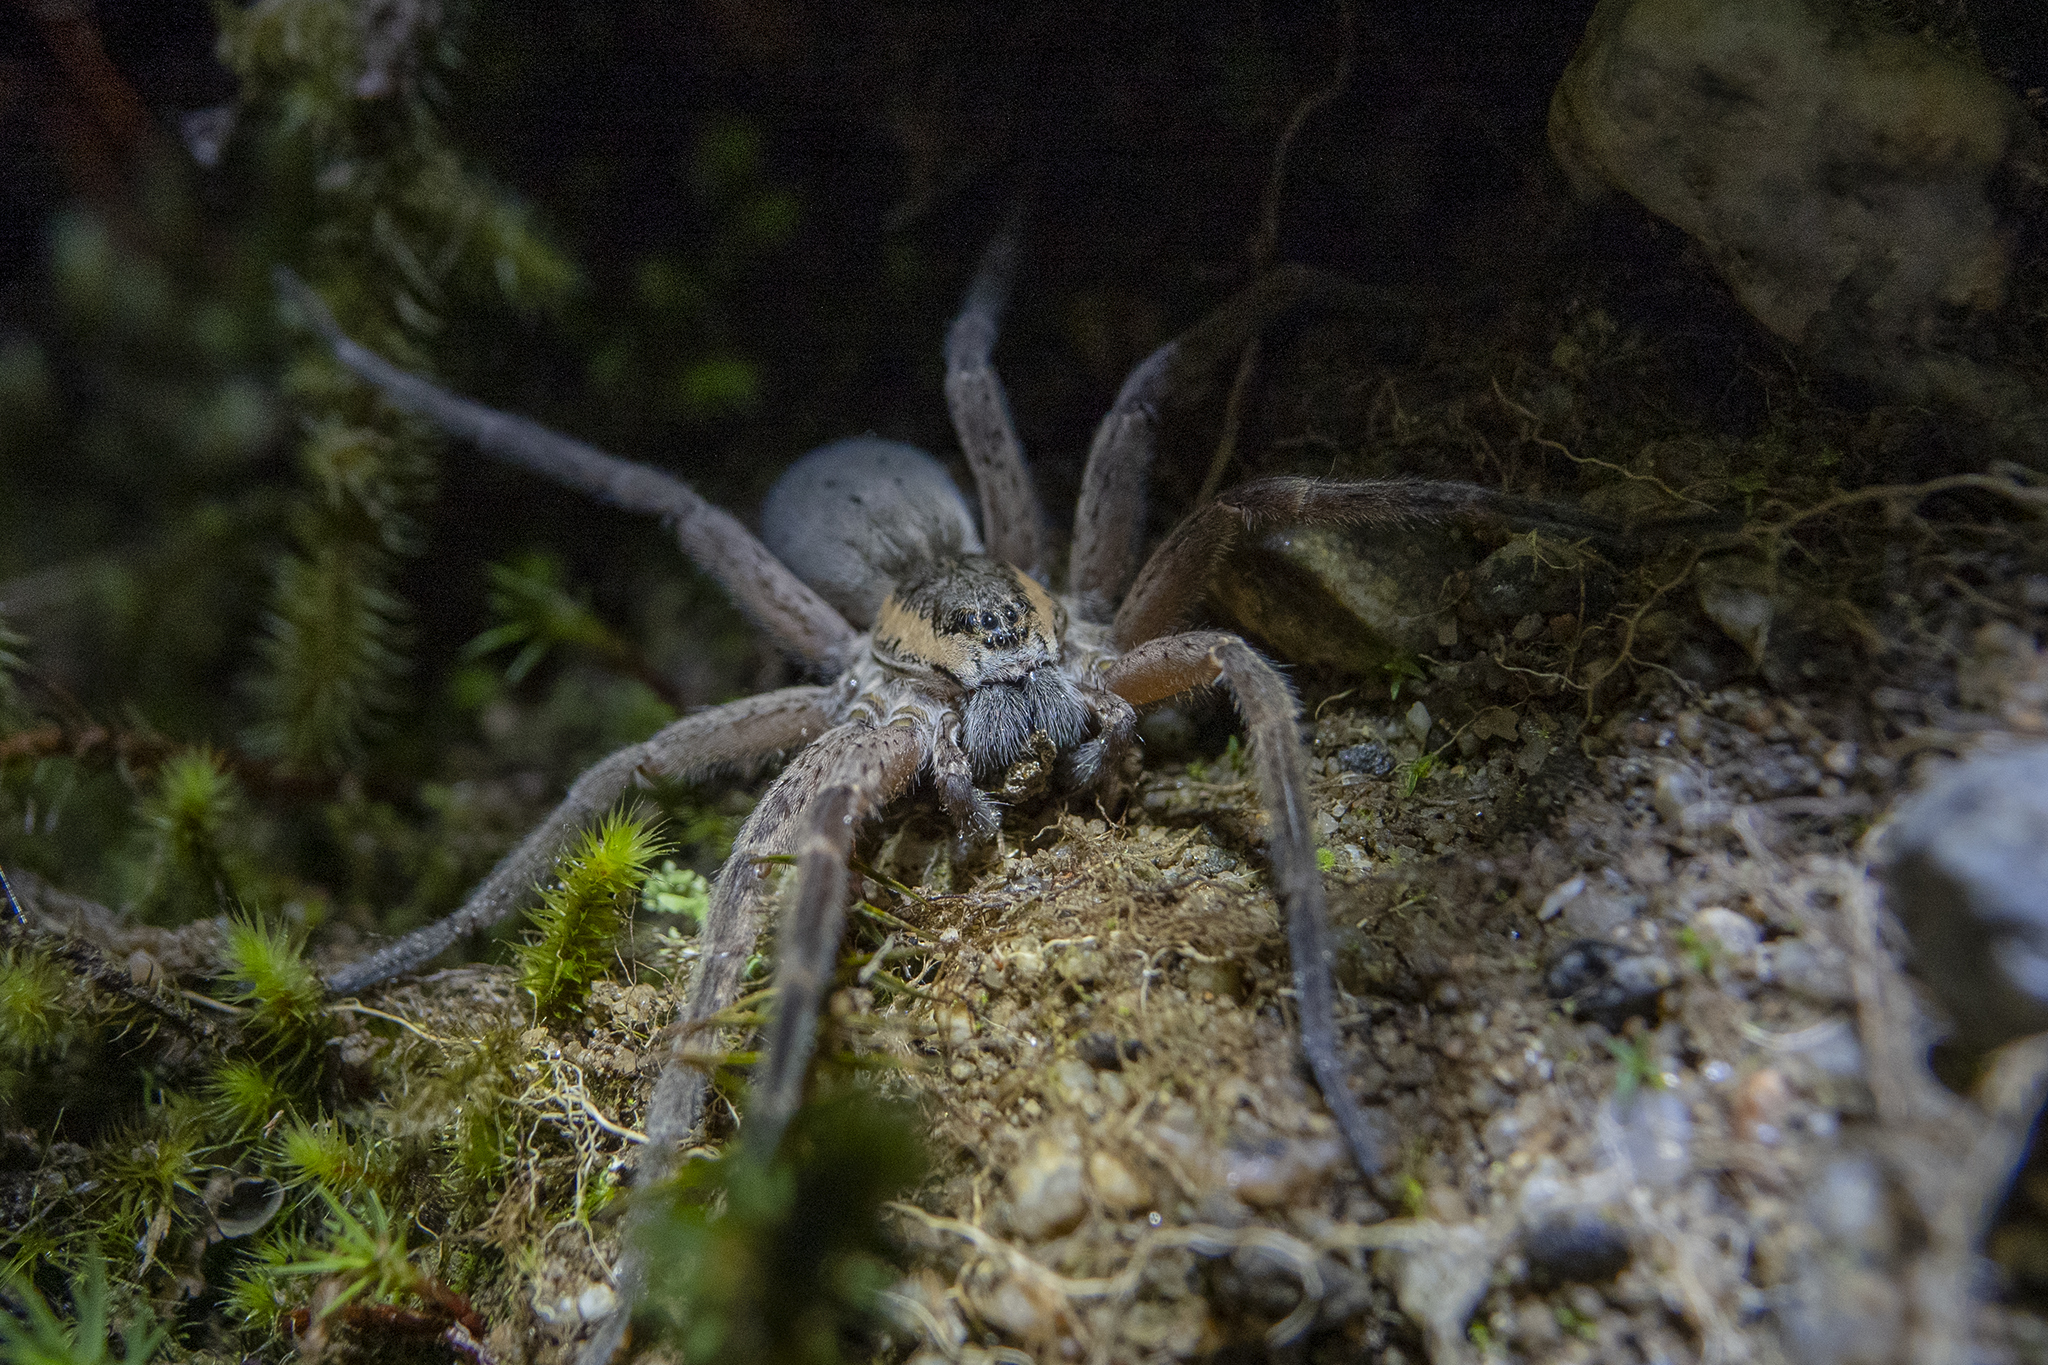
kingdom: Animalia
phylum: Arthropoda
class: Arachnida
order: Araneae
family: Pisauridae
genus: Dolomedes
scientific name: Dolomedes aquaticus
